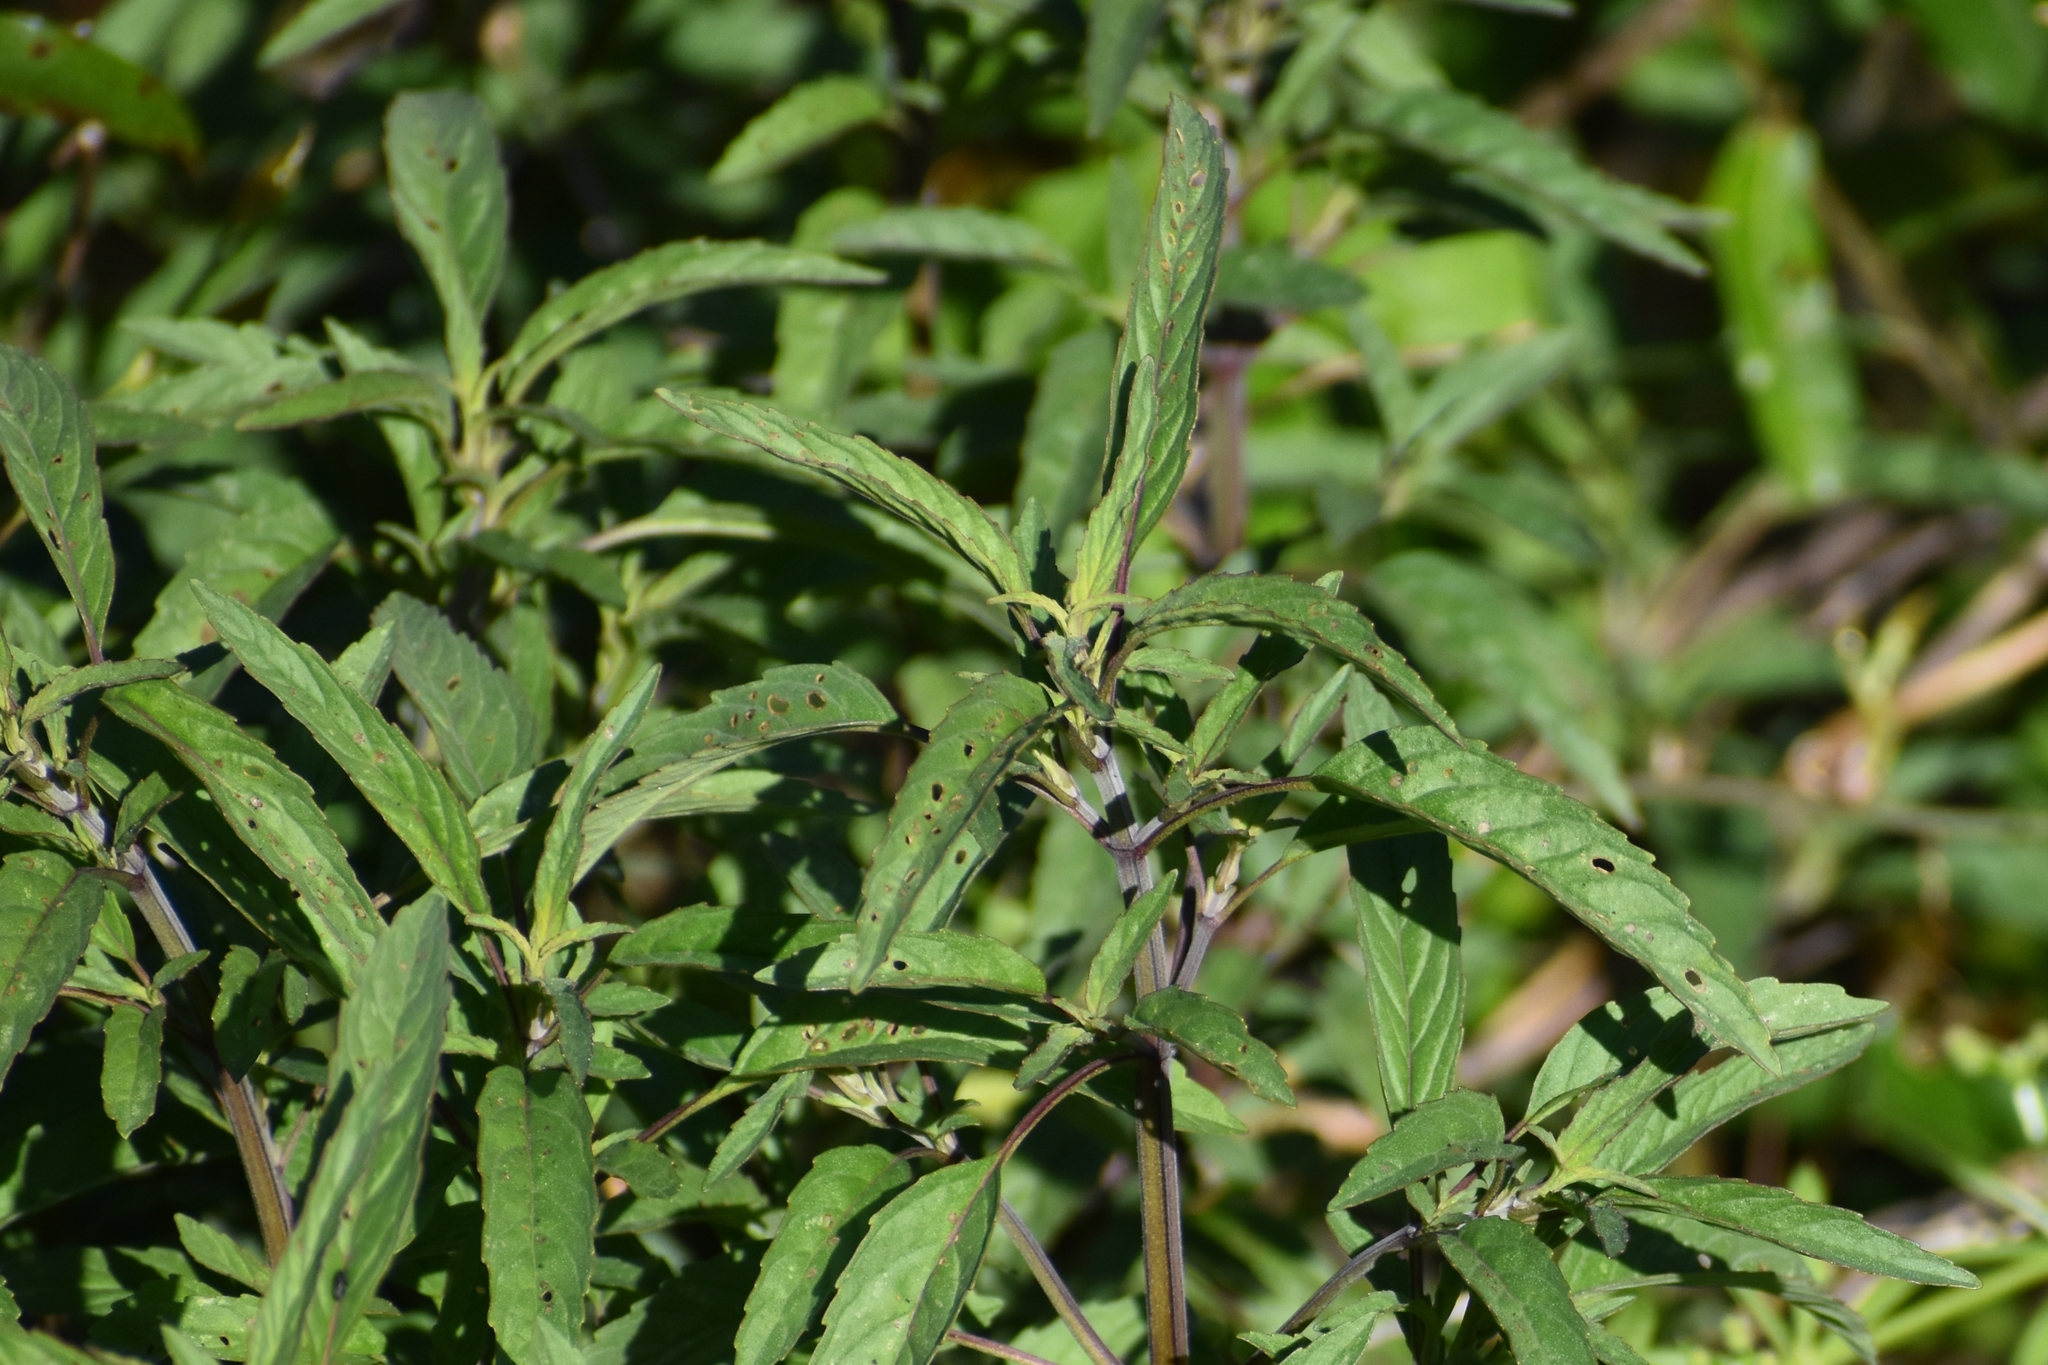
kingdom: Plantae
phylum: Tracheophyta
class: Magnoliopsida
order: Lamiales
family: Lamiaceae
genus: Monarda
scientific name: Monarda punctata
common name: Dotted monarda
